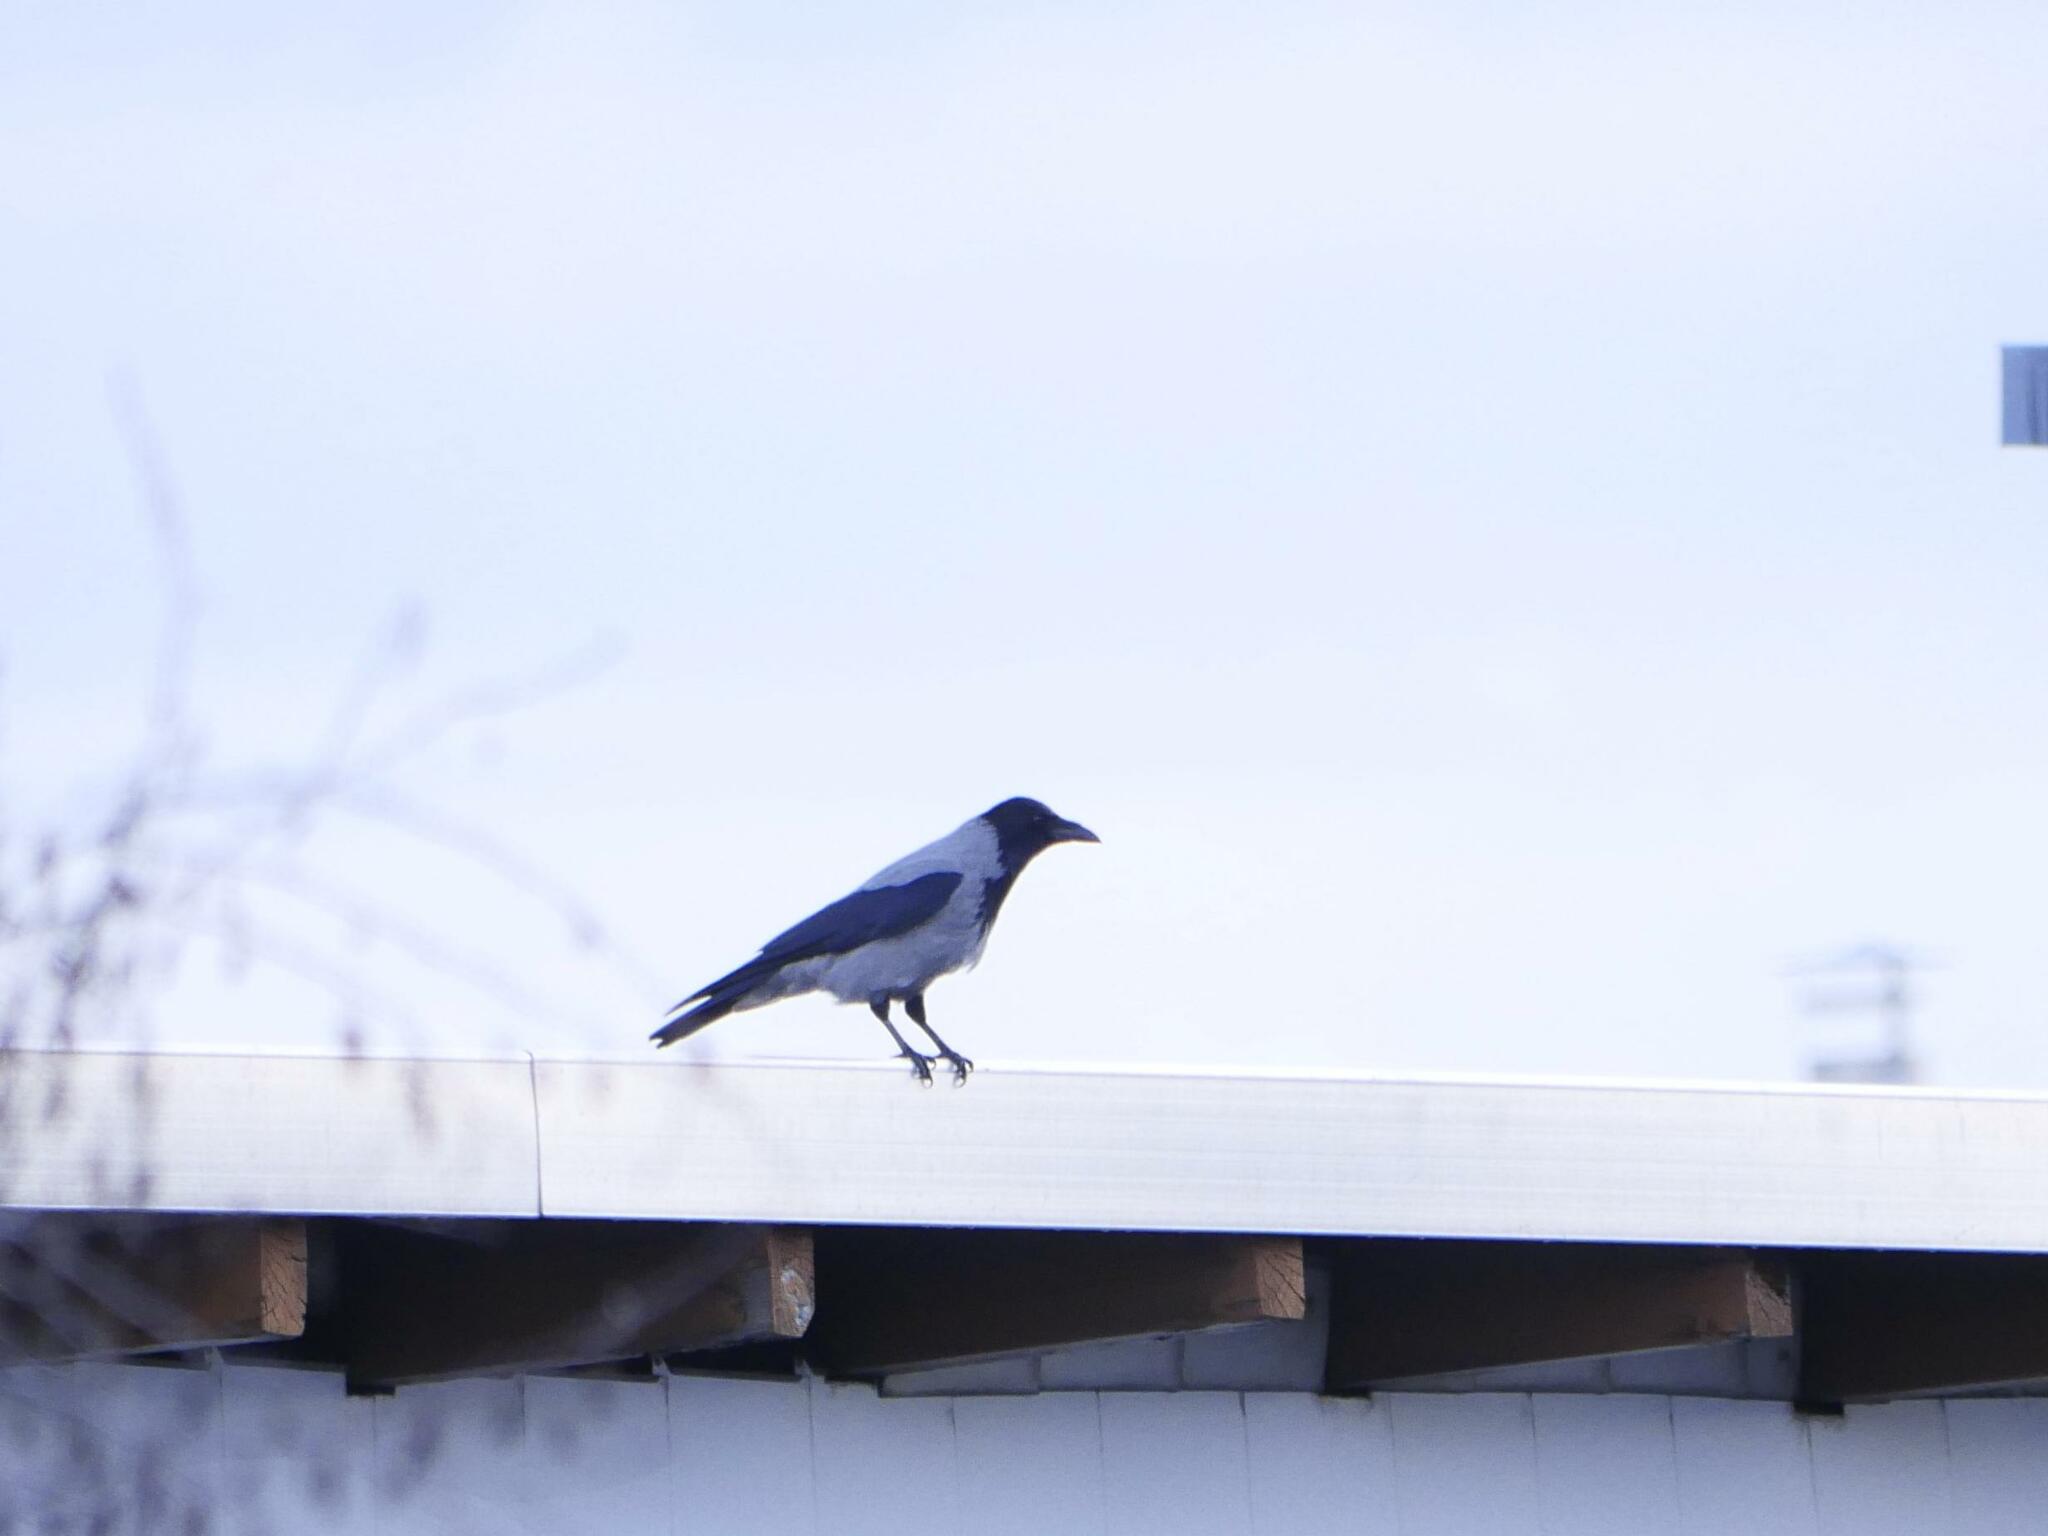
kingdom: Animalia
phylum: Chordata
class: Aves
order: Passeriformes
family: Corvidae
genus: Corvus
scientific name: Corvus cornix
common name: Hooded crow
